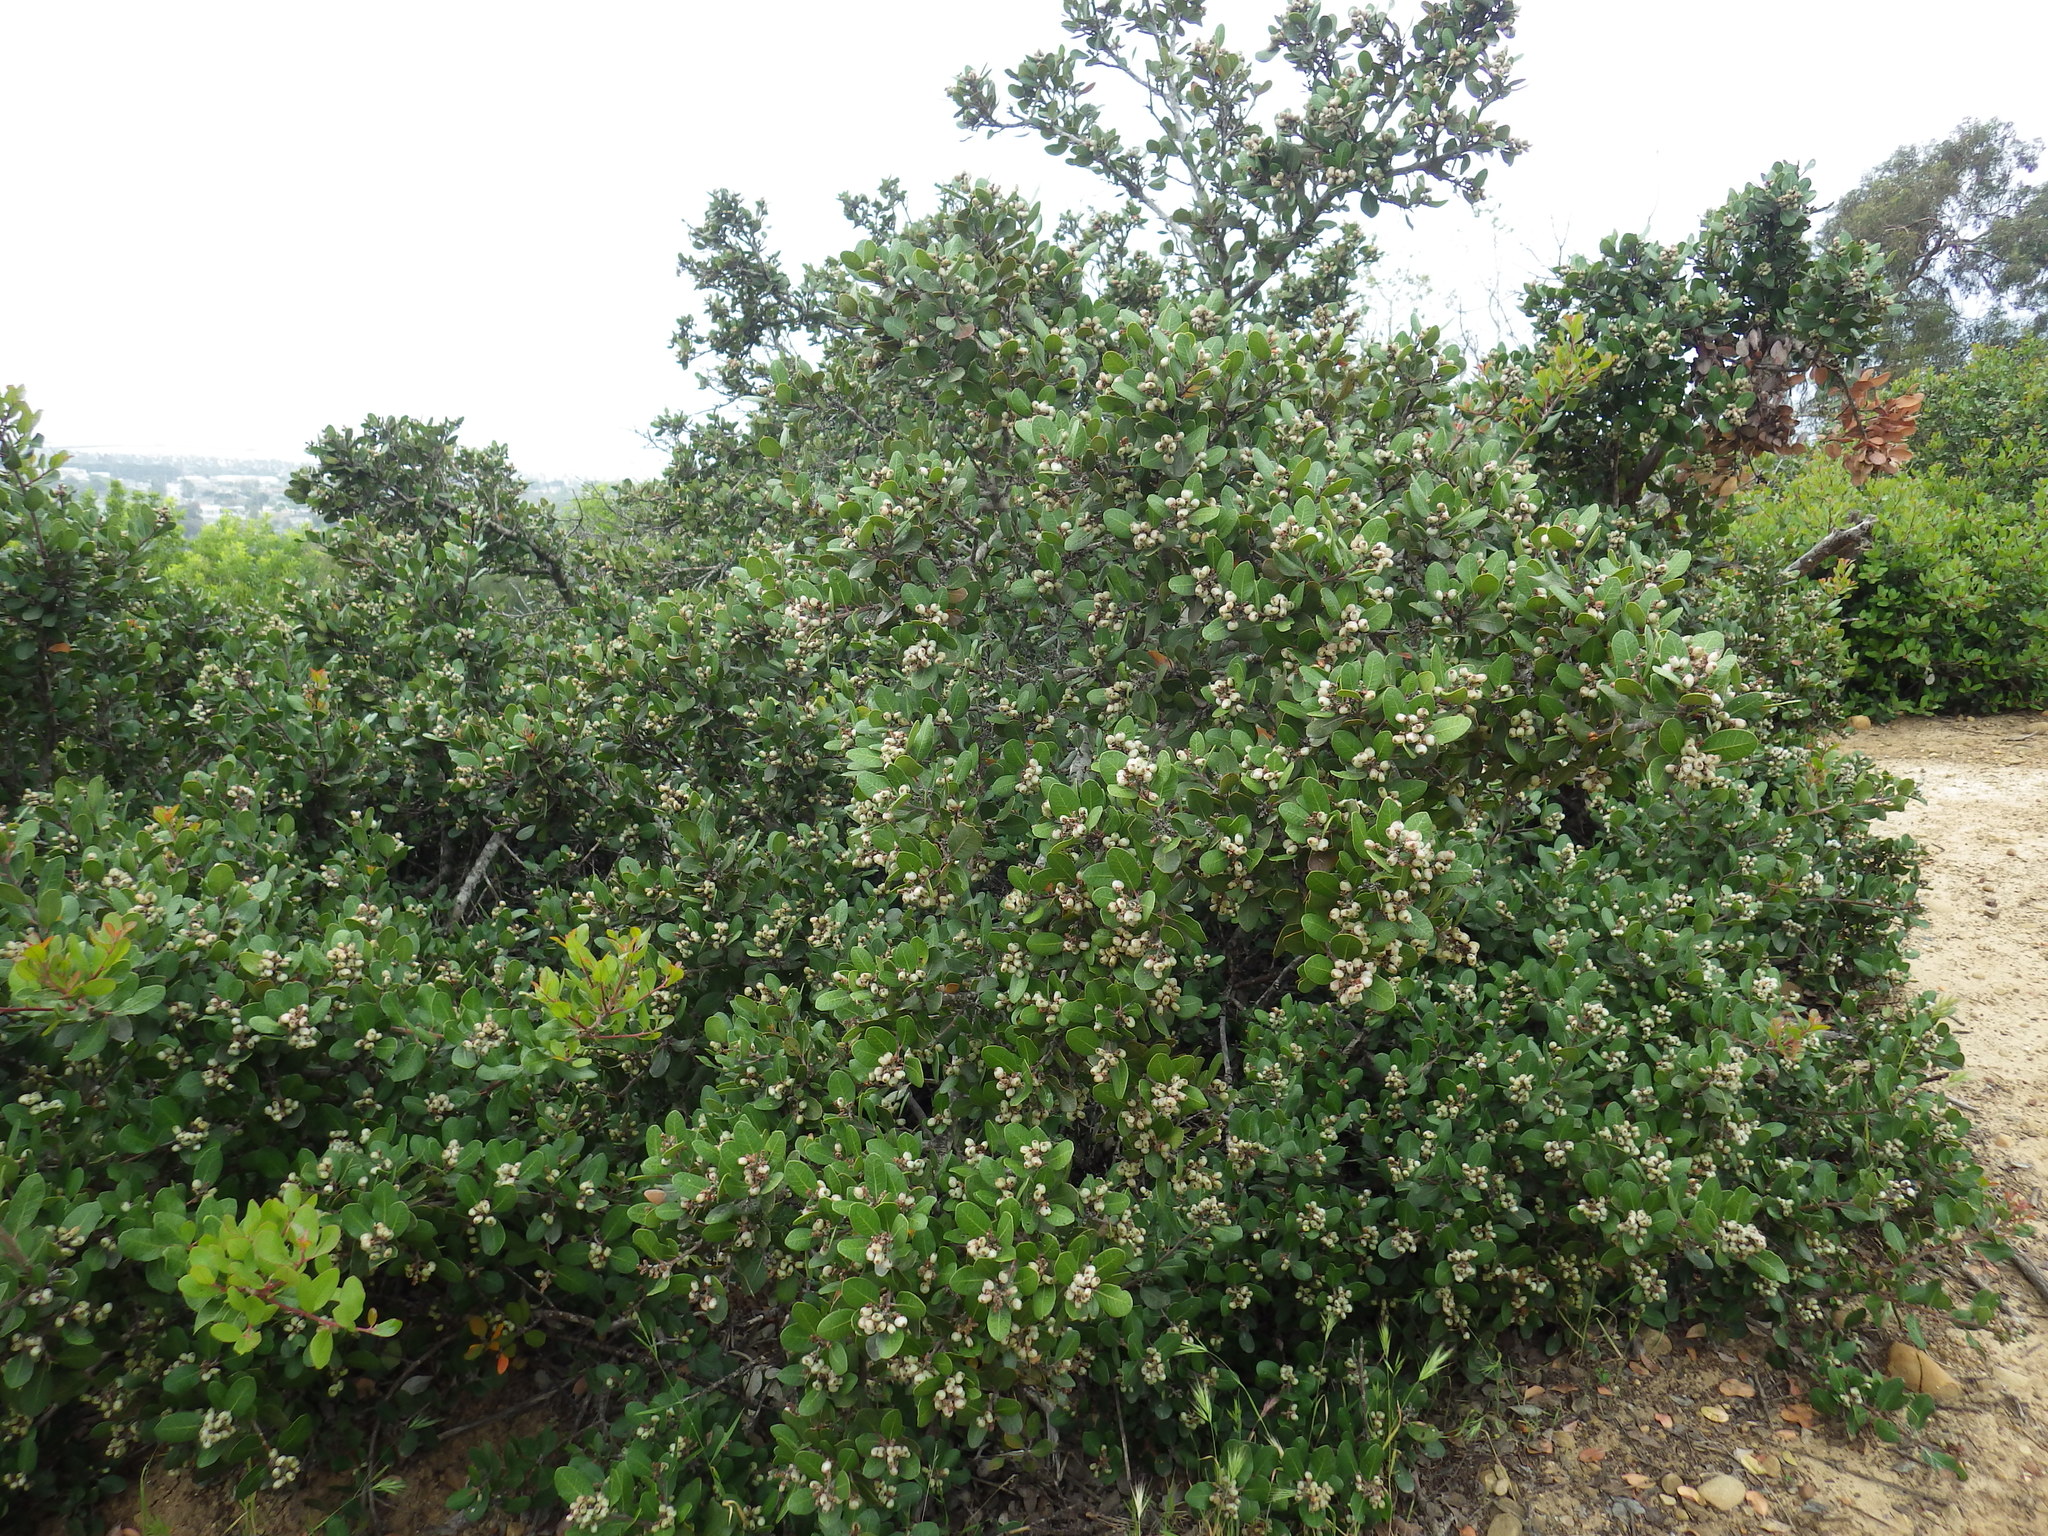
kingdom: Plantae
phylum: Tracheophyta
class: Magnoliopsida
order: Sapindales
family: Anacardiaceae
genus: Rhus
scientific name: Rhus integrifolia
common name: Lemonade sumac
